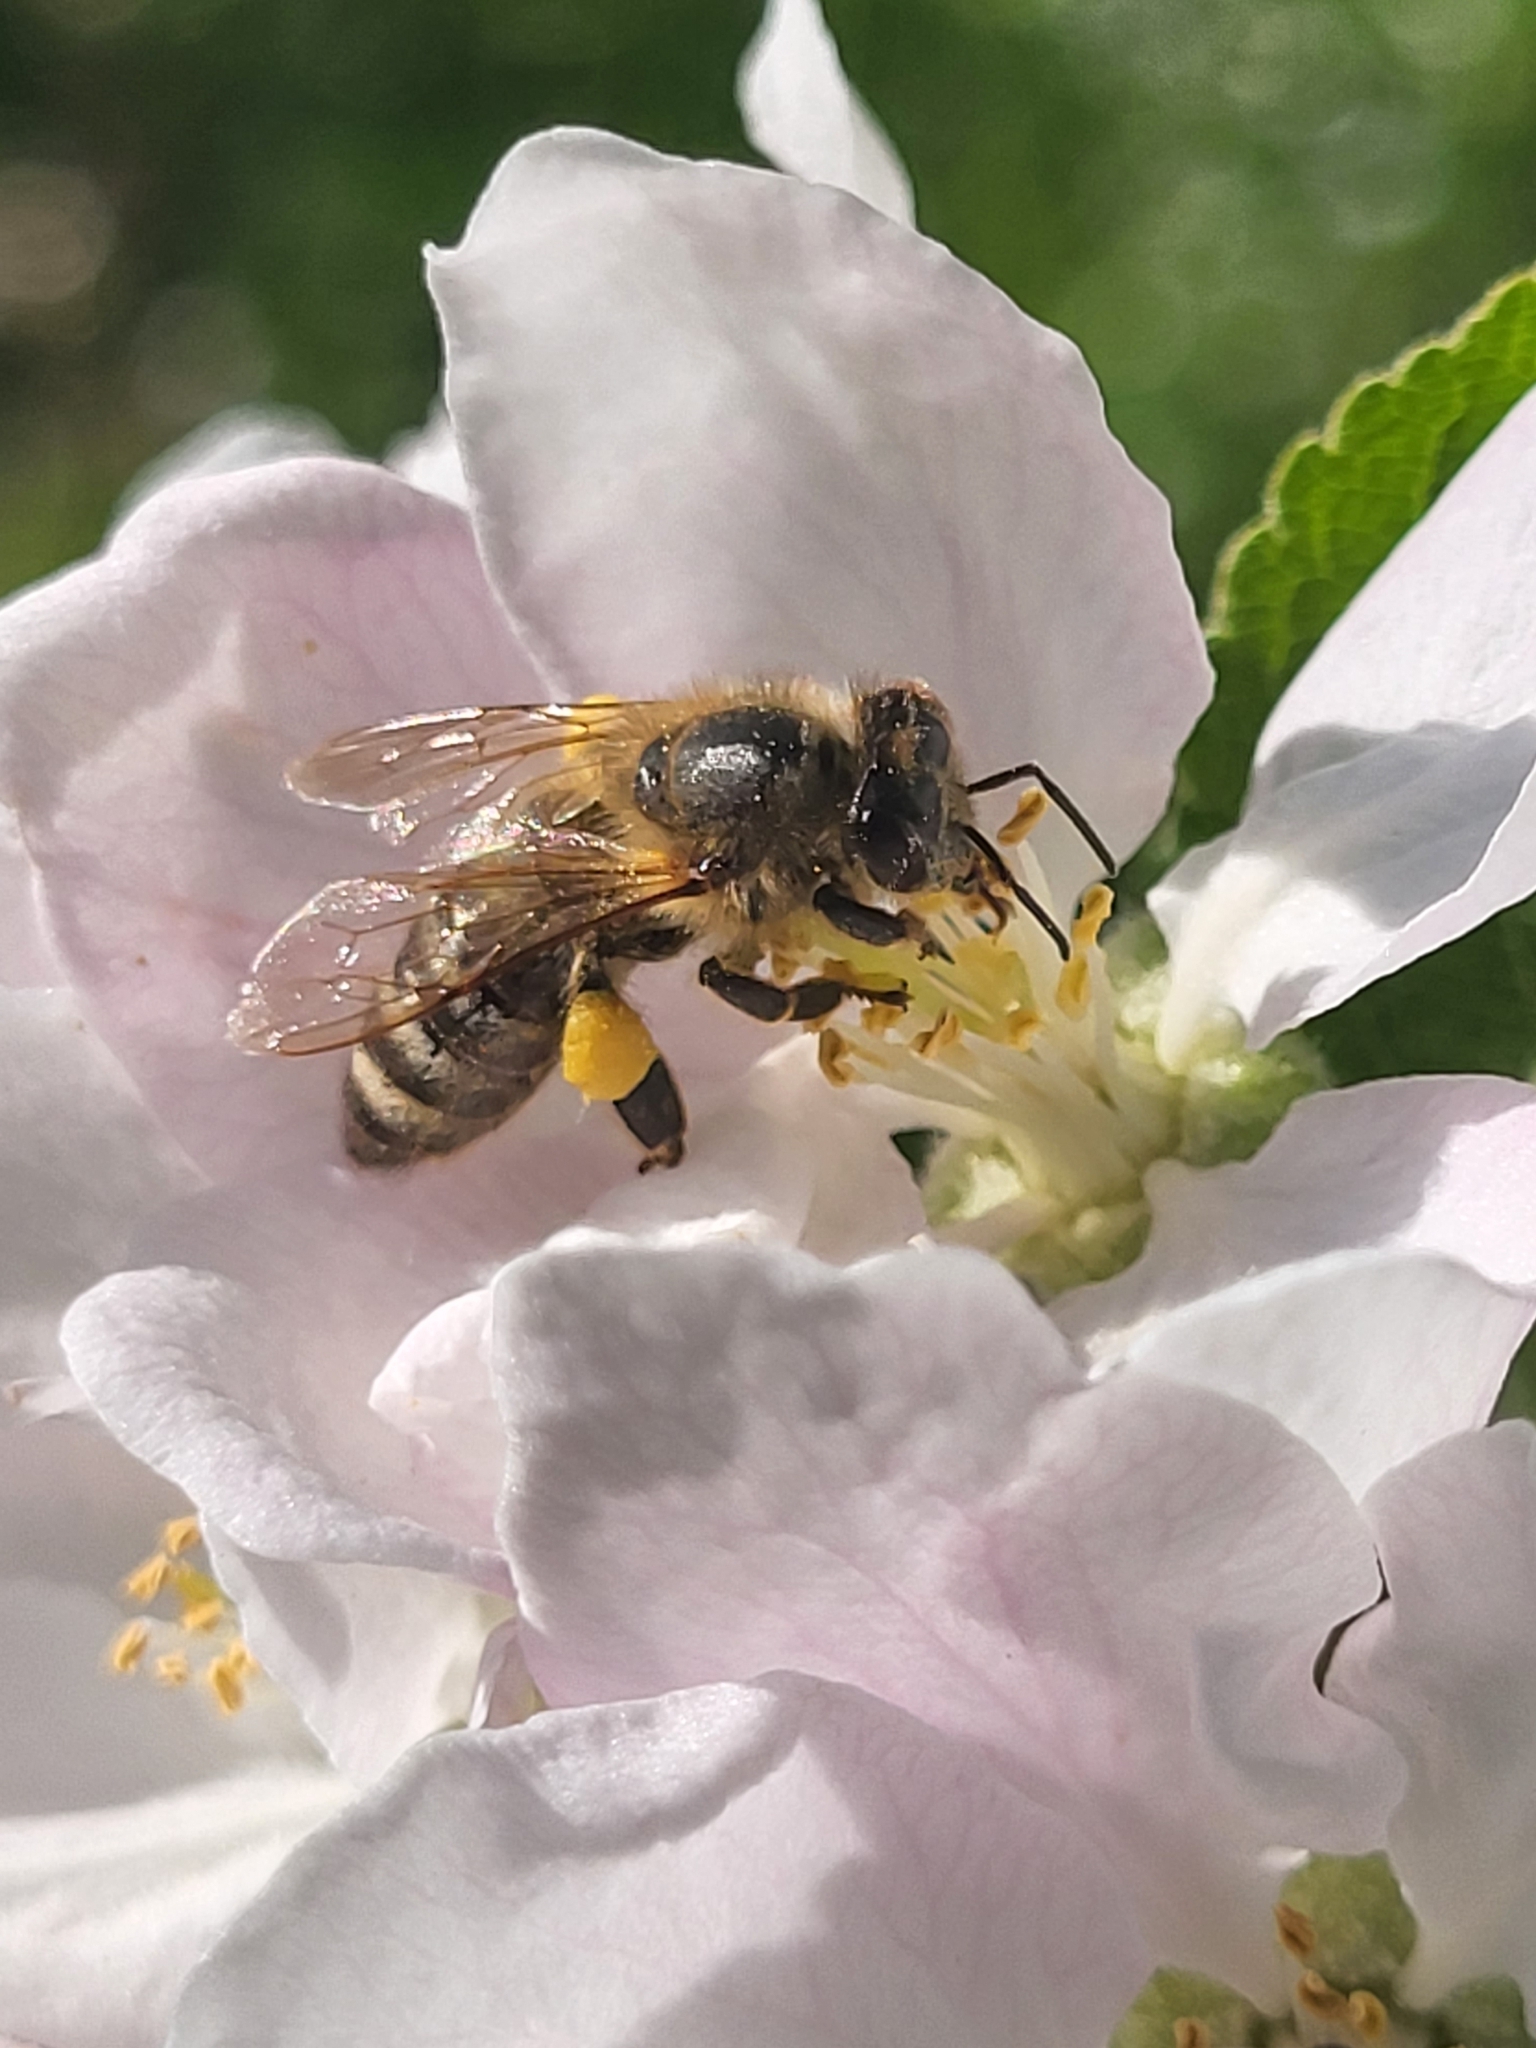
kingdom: Animalia
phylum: Arthropoda
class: Insecta
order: Hymenoptera
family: Apidae
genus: Apis
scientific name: Apis mellifera
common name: Honey bee
